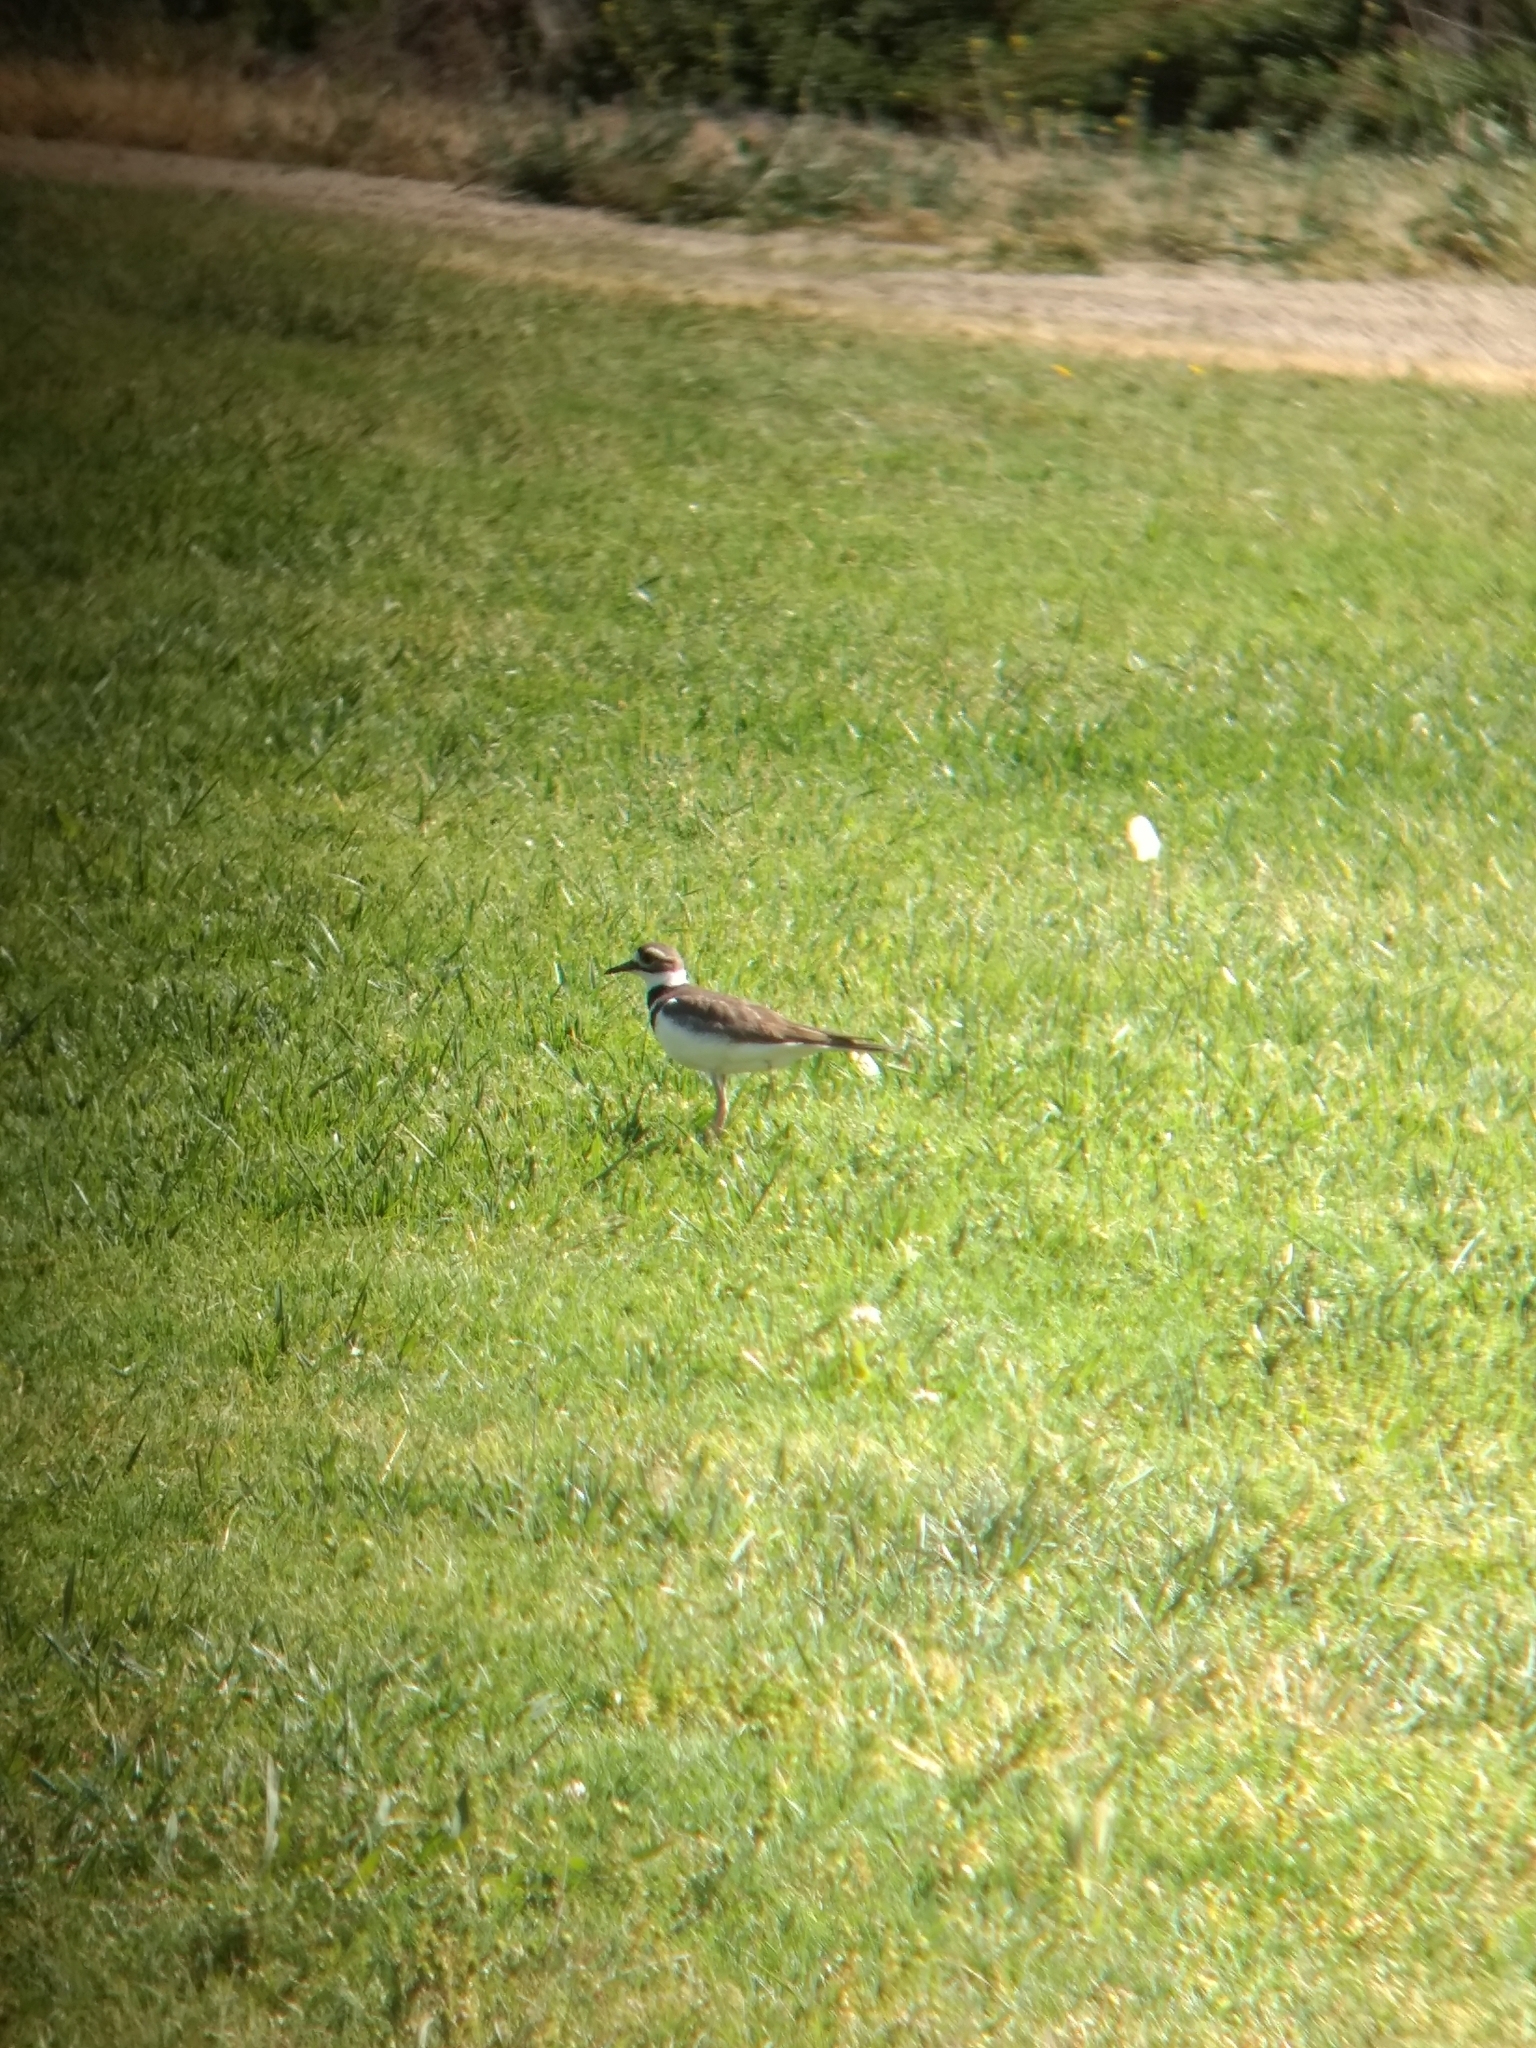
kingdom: Animalia
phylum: Chordata
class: Aves
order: Charadriiformes
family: Charadriidae
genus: Charadrius
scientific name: Charadrius vociferus
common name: Killdeer
